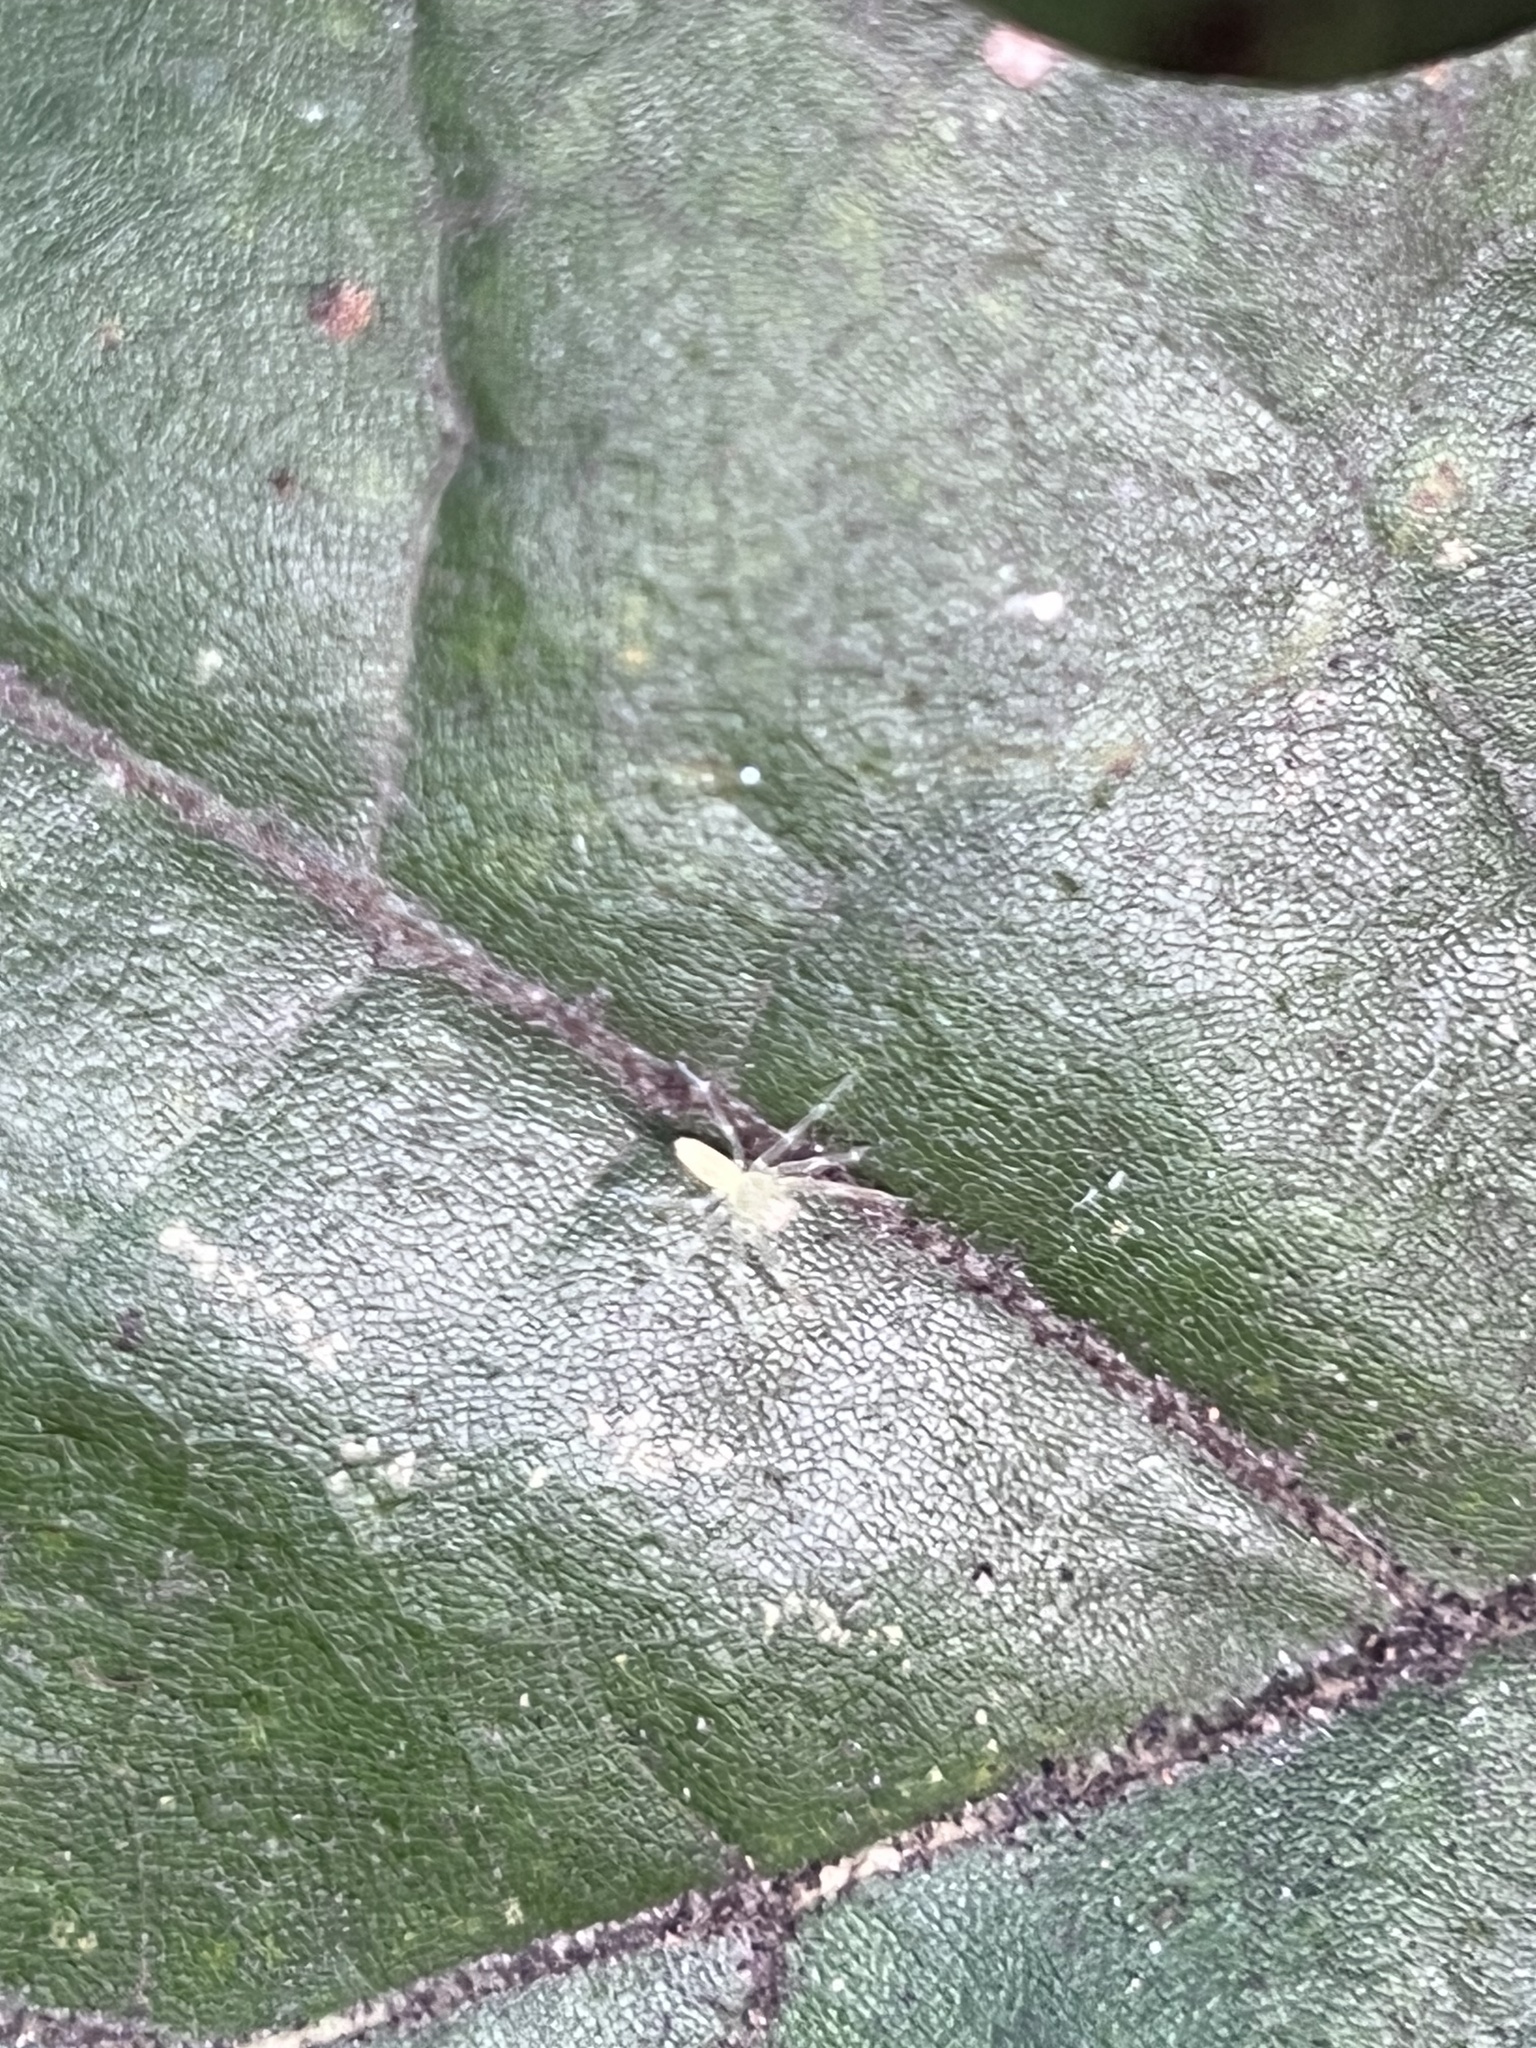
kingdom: Animalia
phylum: Arthropoda
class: Arachnida
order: Araneae
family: Salticidae
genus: Lyssomanes
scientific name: Lyssomanes viridis
